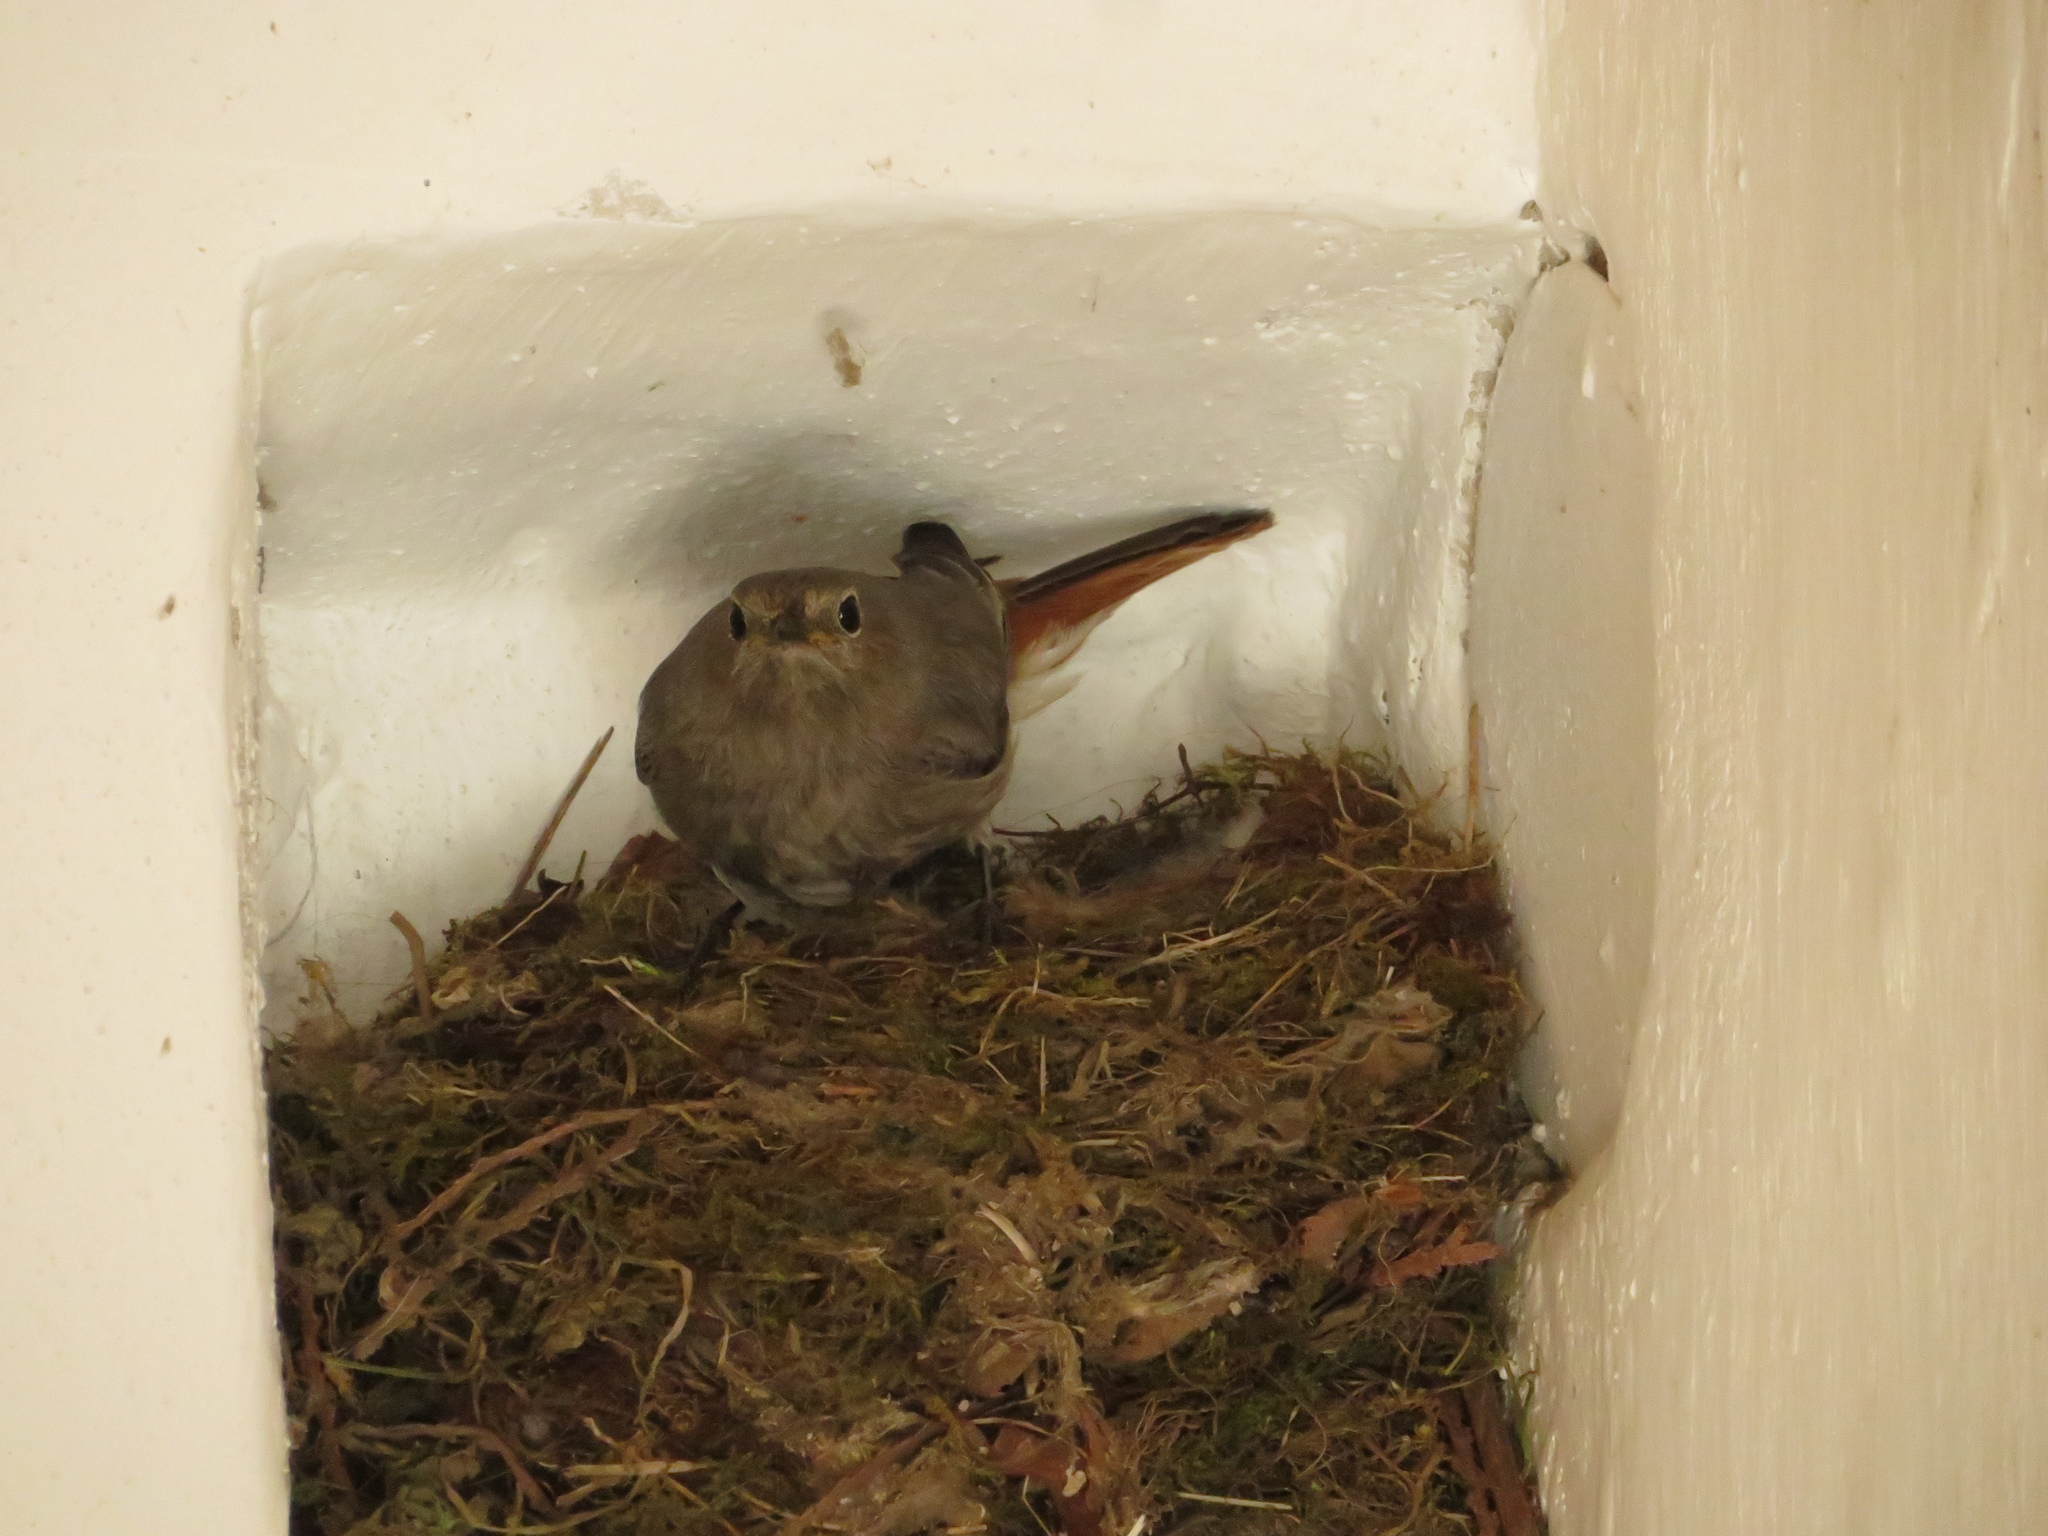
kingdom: Animalia
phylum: Chordata
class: Aves
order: Passeriformes
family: Muscicapidae
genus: Phoenicurus
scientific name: Phoenicurus ochruros
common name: Black redstart
